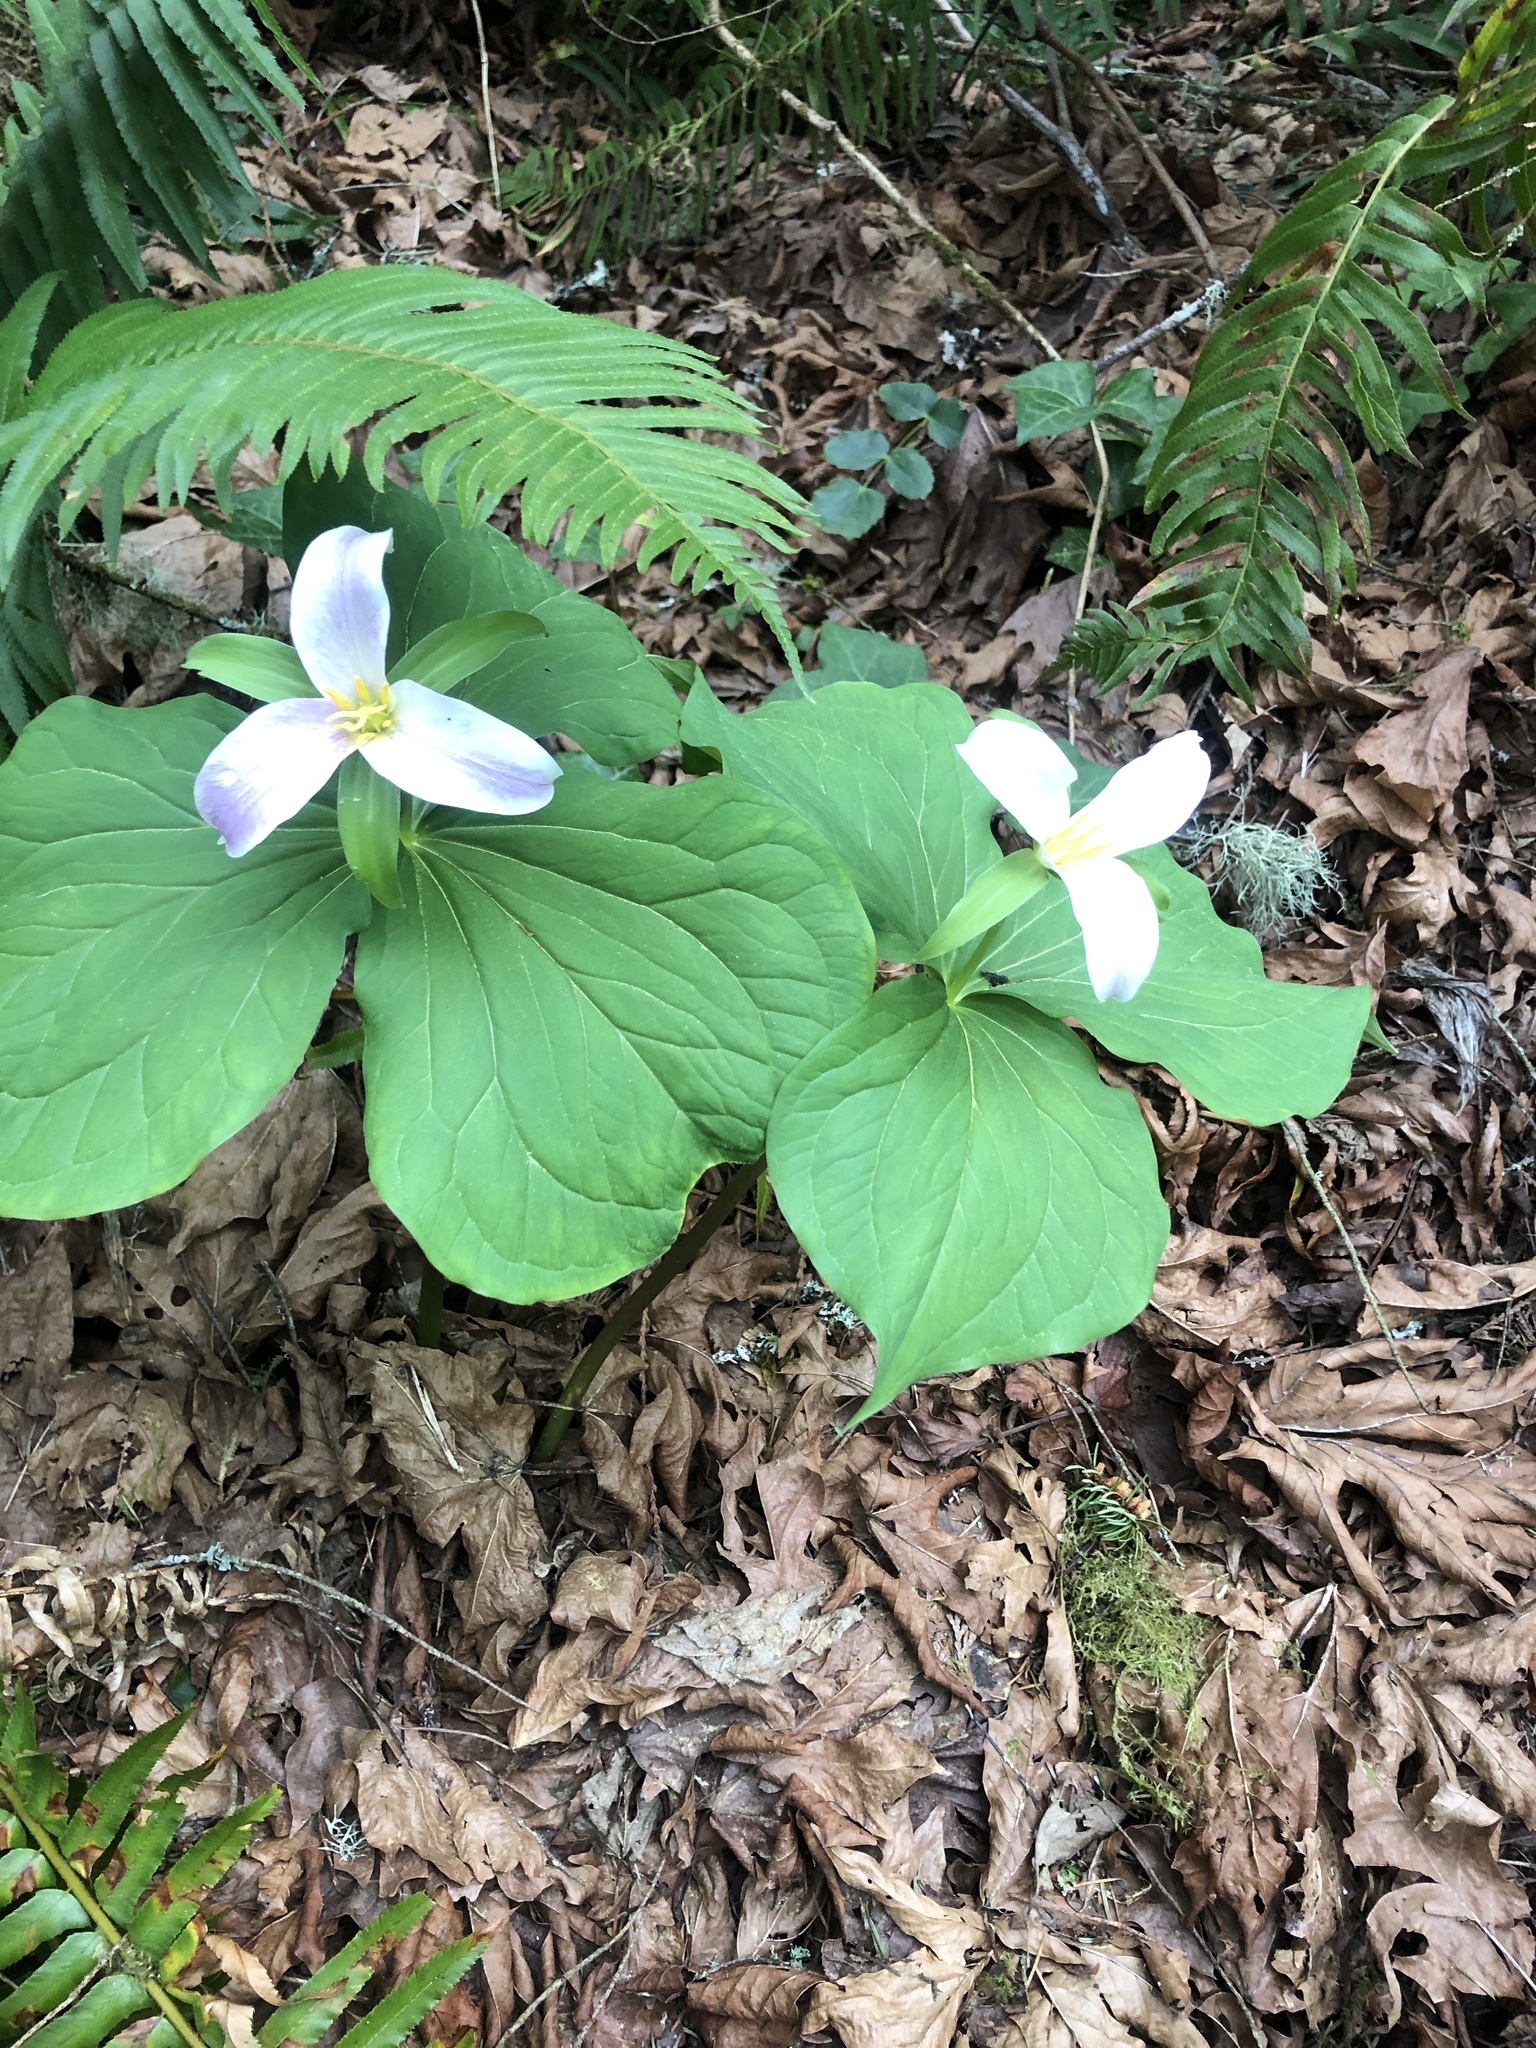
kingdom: Plantae
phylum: Tracheophyta
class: Liliopsida
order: Liliales
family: Melanthiaceae
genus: Trillium
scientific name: Trillium ovatum
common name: Pacific trillium
